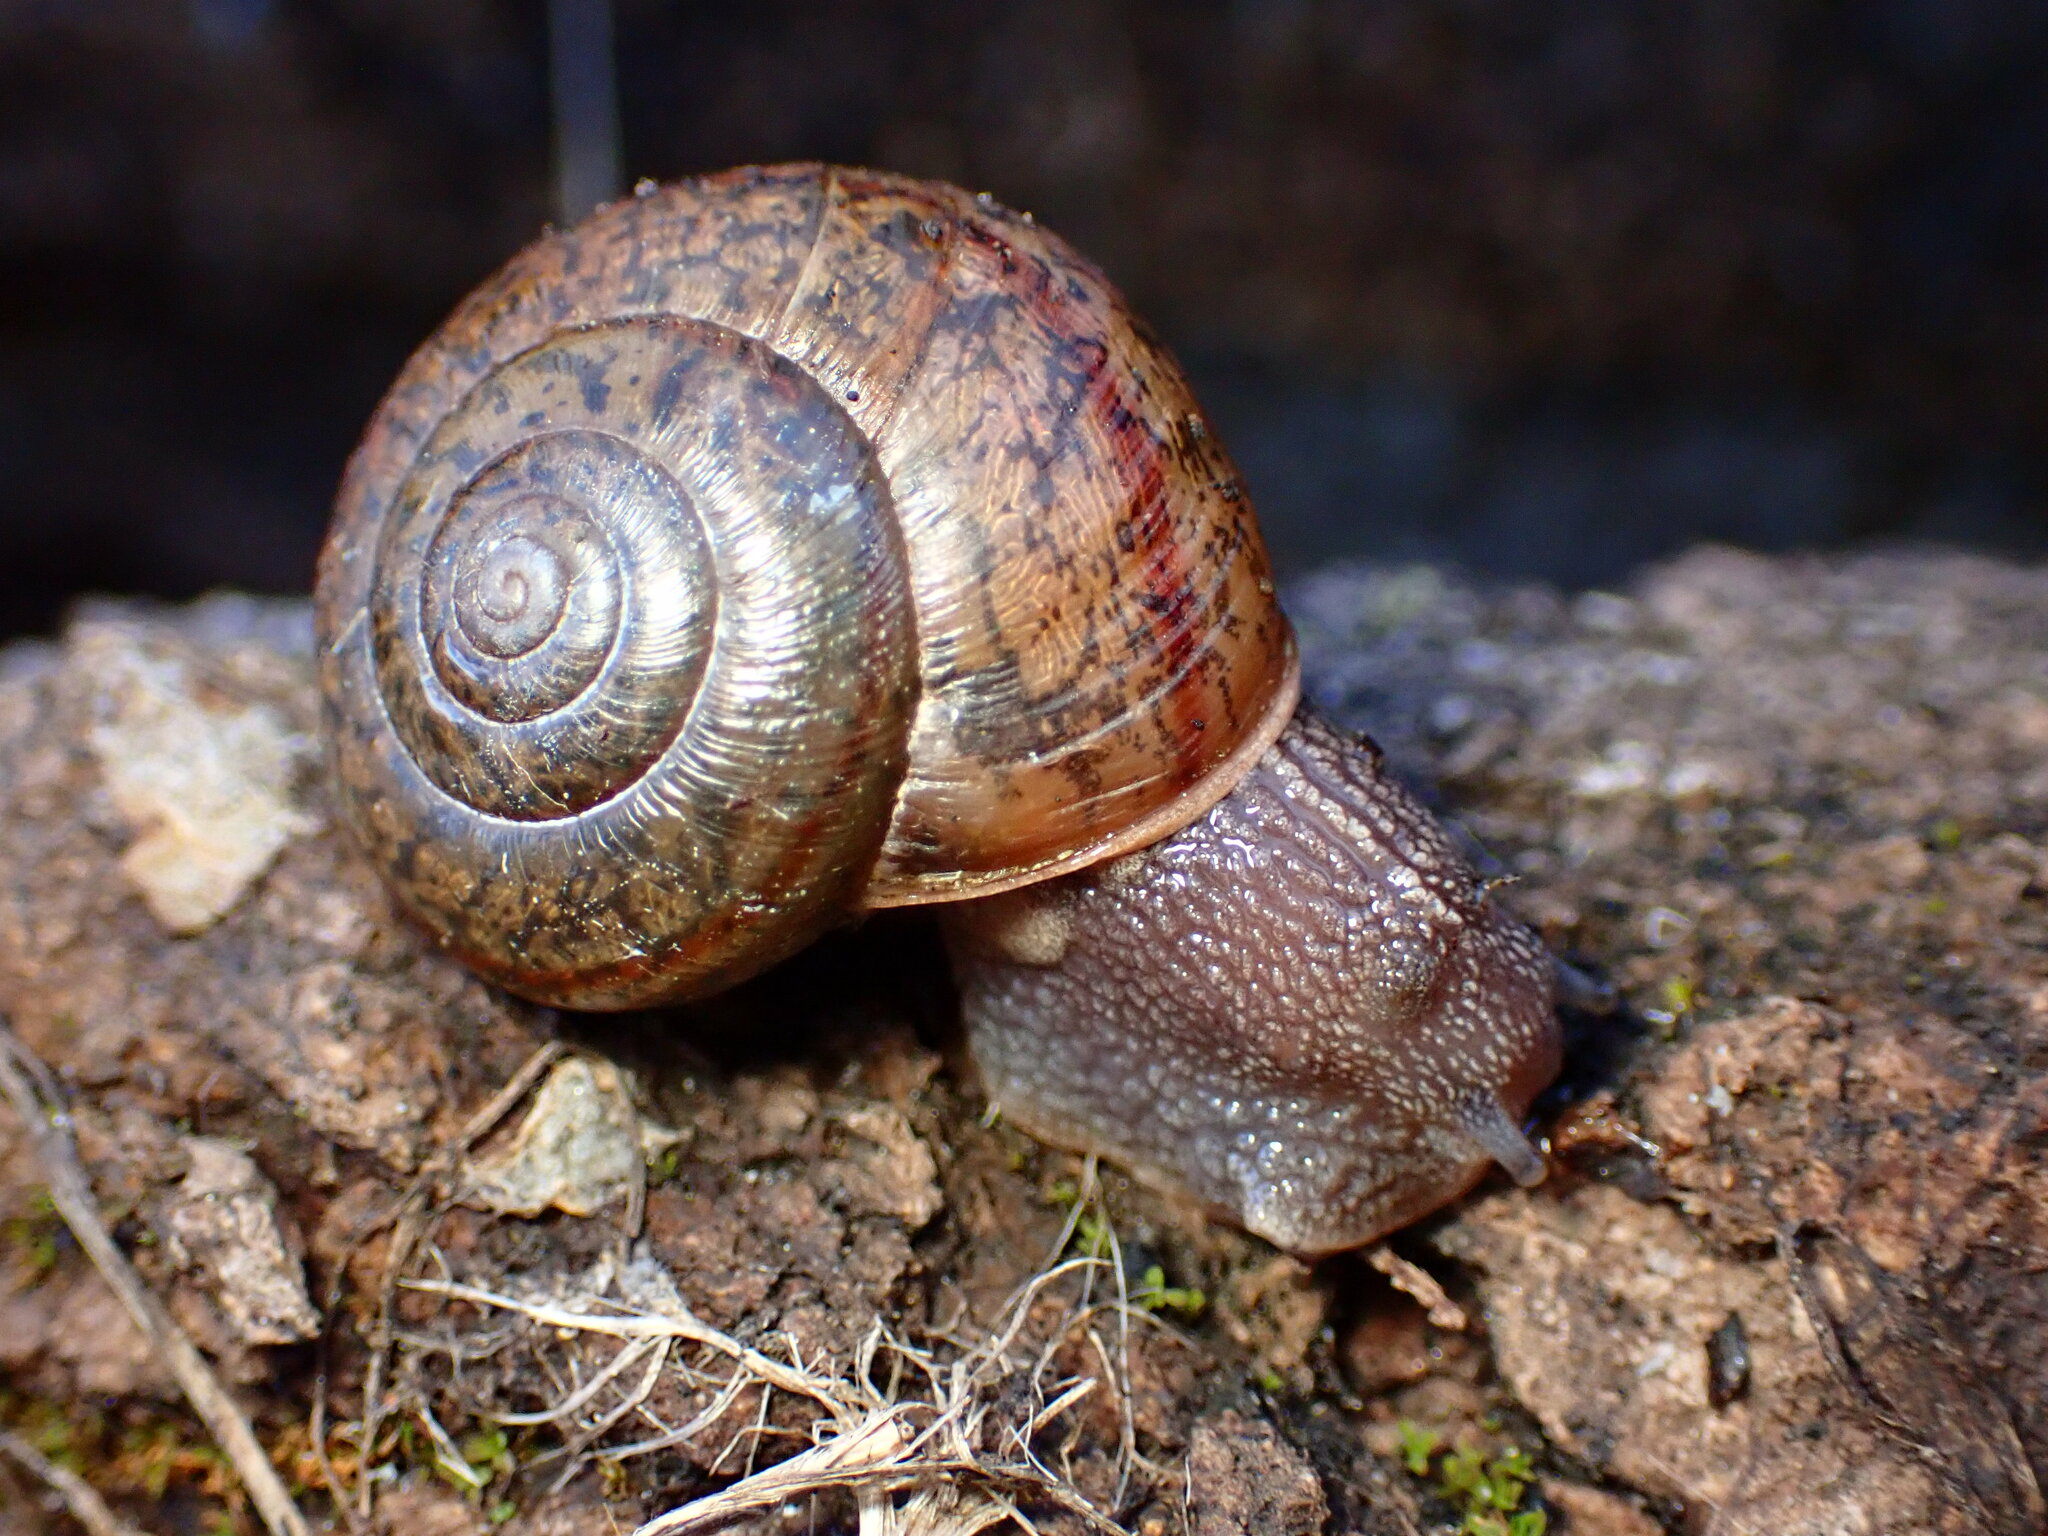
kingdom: Animalia
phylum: Mollusca
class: Gastropoda
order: Stylommatophora
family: Xanthonychidae
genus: Helminthoglypta
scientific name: Helminthoglypta cypreophila
